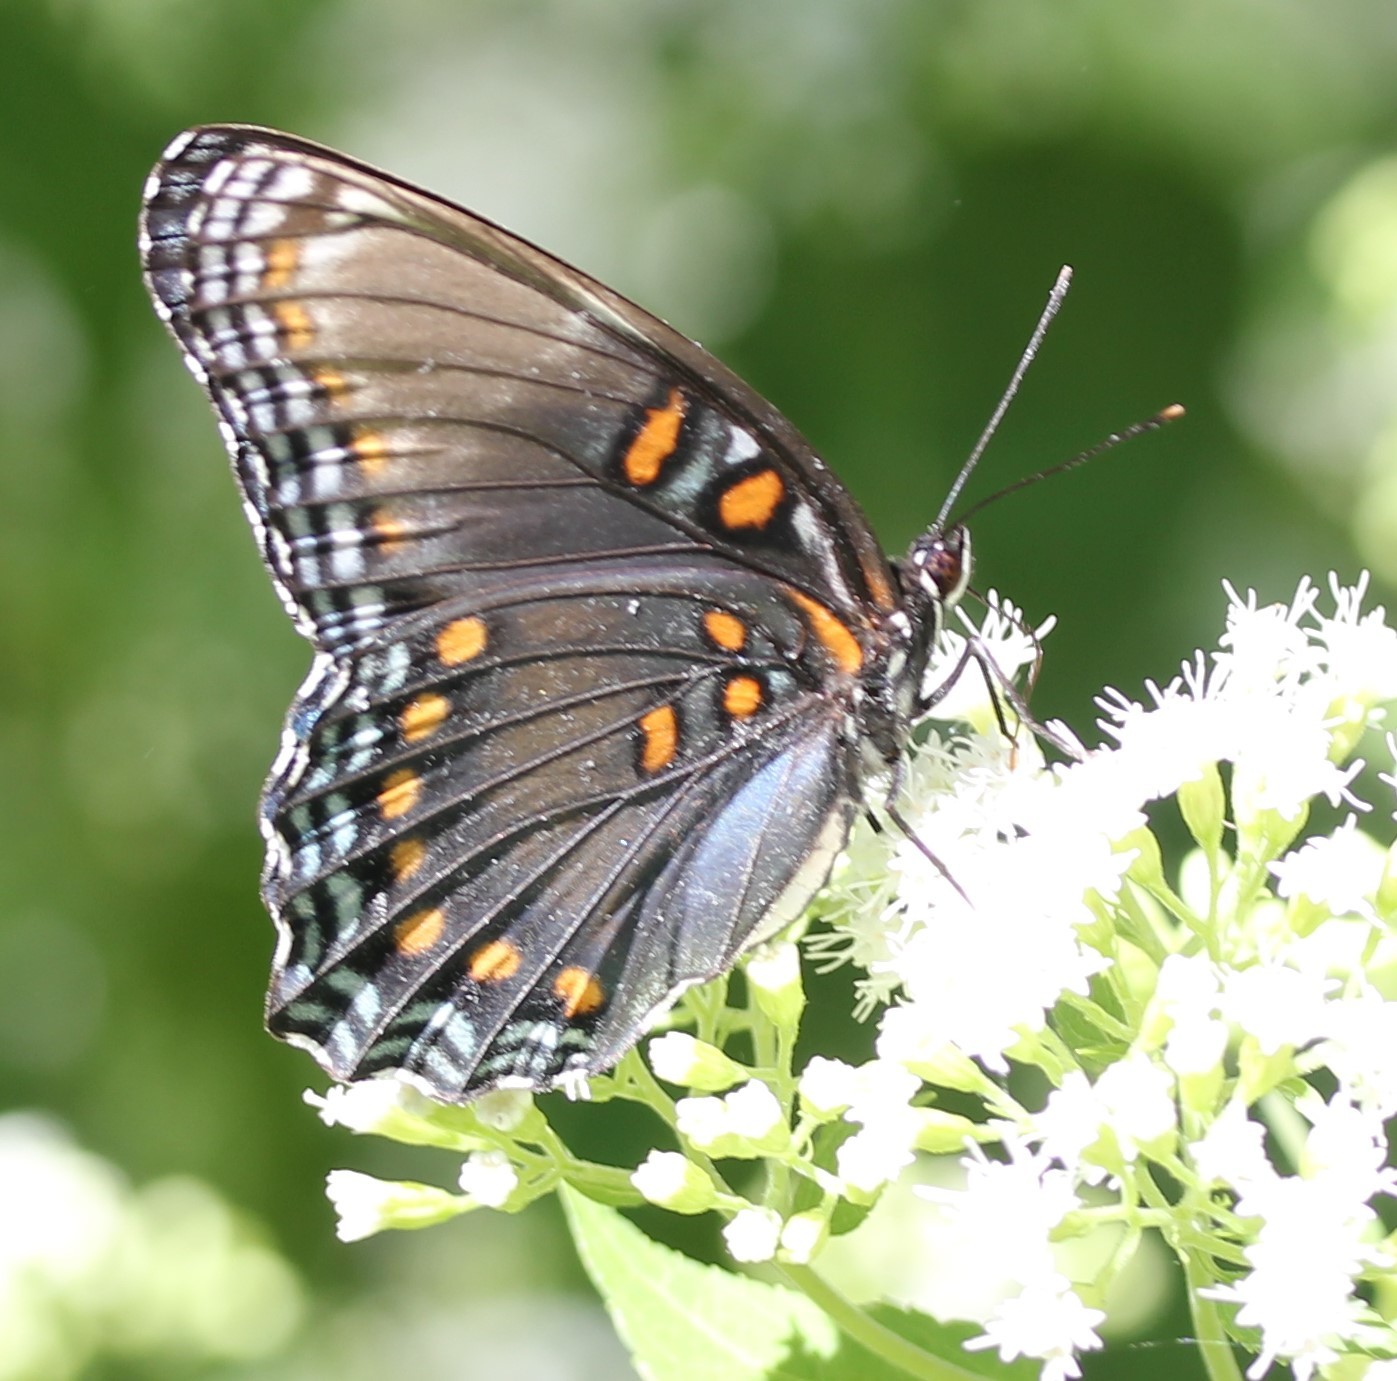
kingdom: Animalia
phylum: Arthropoda
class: Insecta
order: Lepidoptera
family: Nymphalidae
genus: Limenitis
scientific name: Limenitis astyanax
